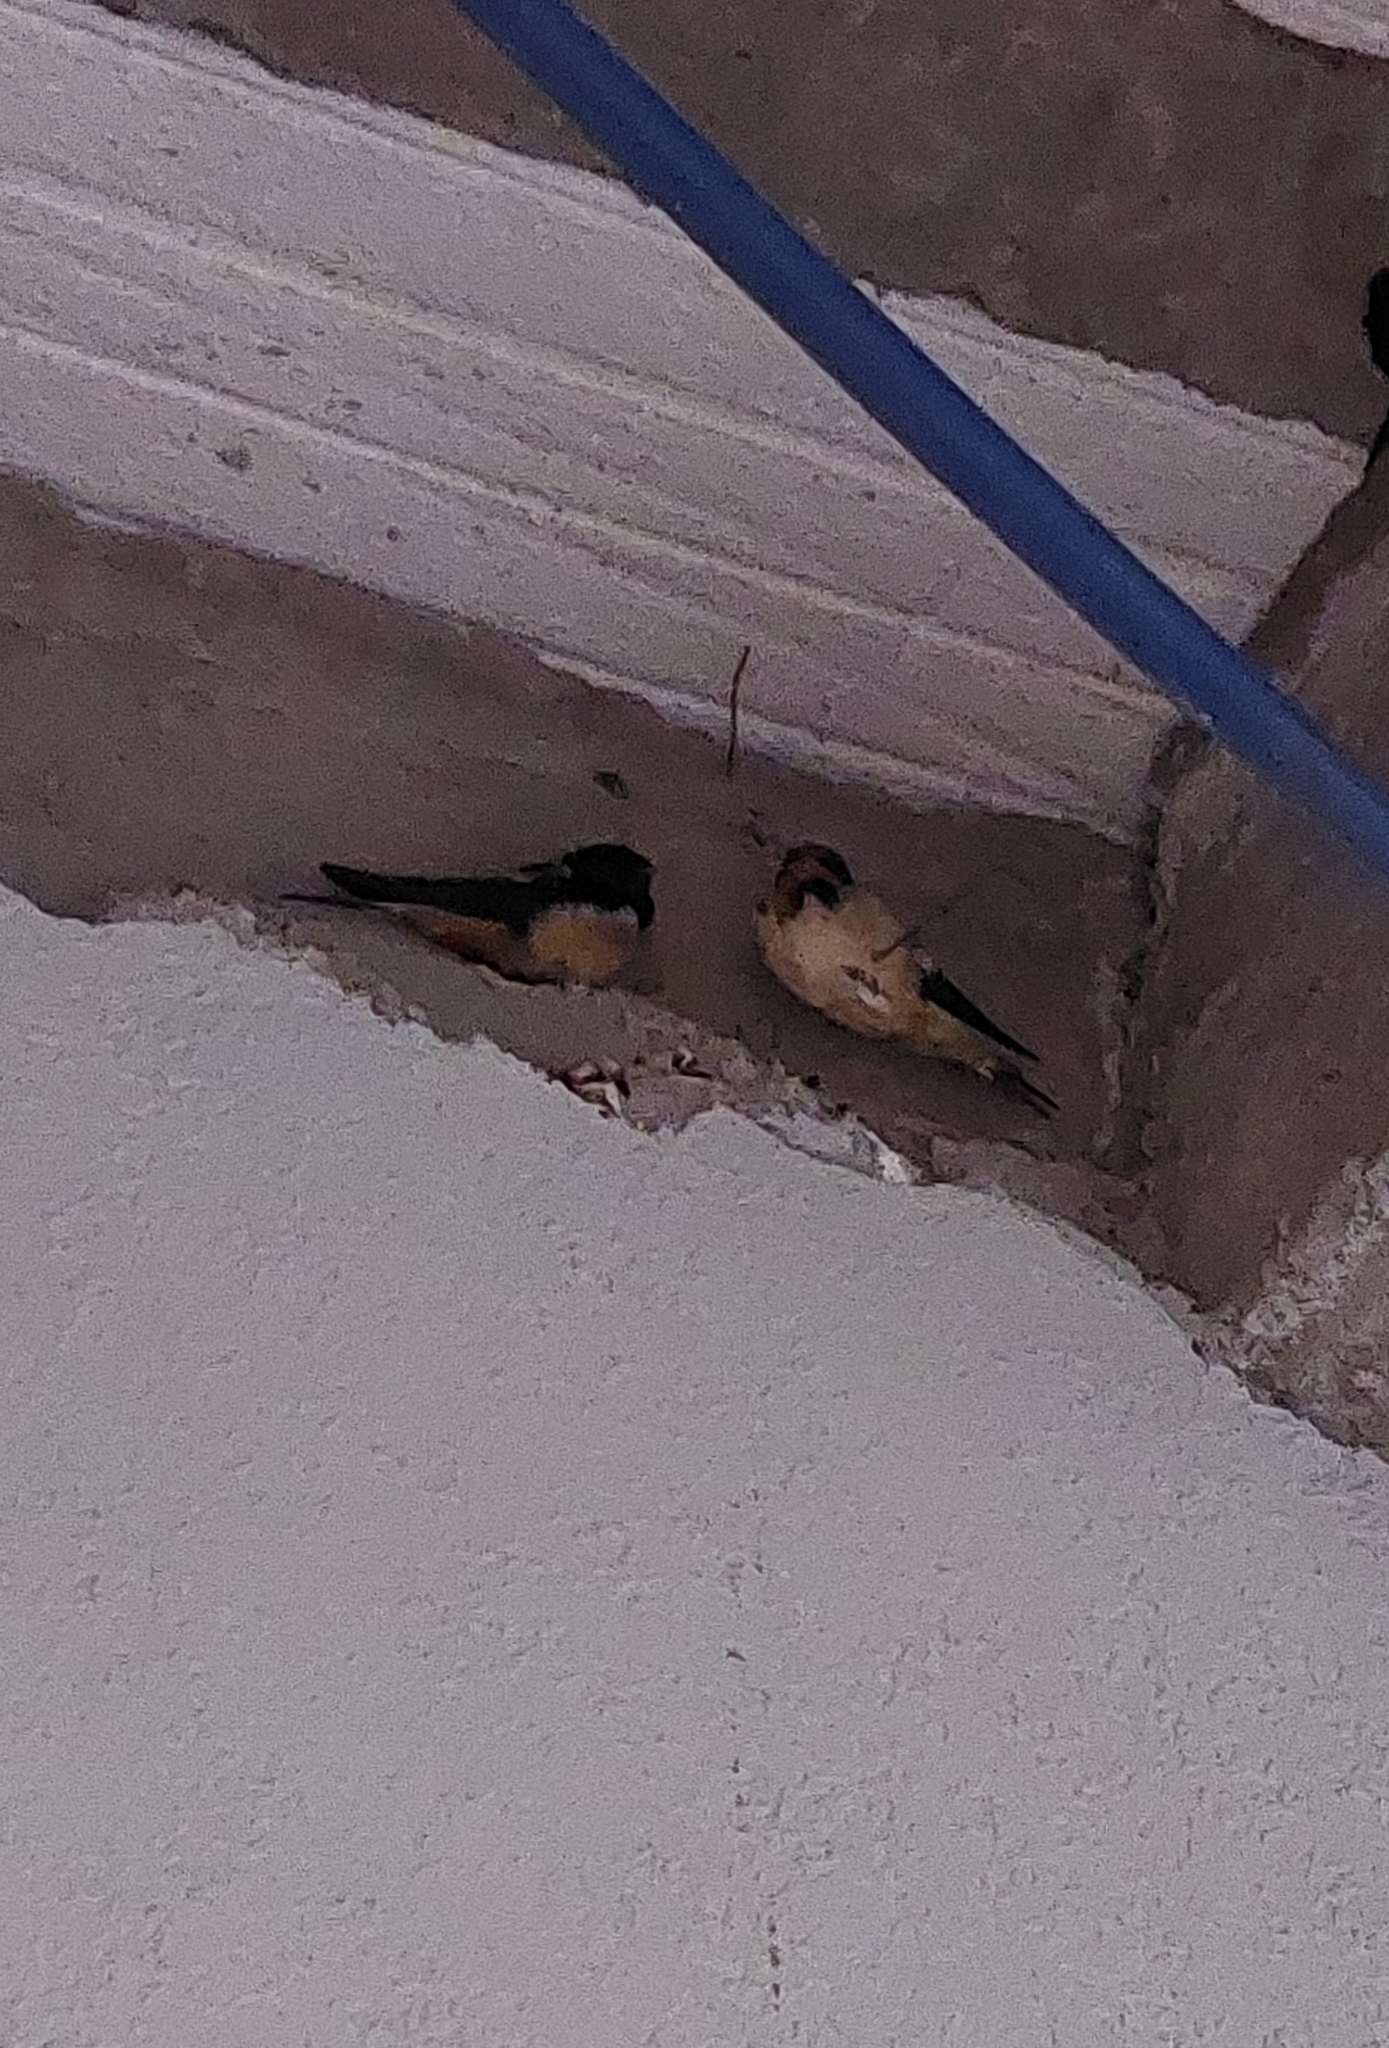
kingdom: Animalia
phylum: Chordata
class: Aves
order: Passeriformes
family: Hirundinidae
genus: Hirundo
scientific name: Hirundo rustica
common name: Barn swallow
